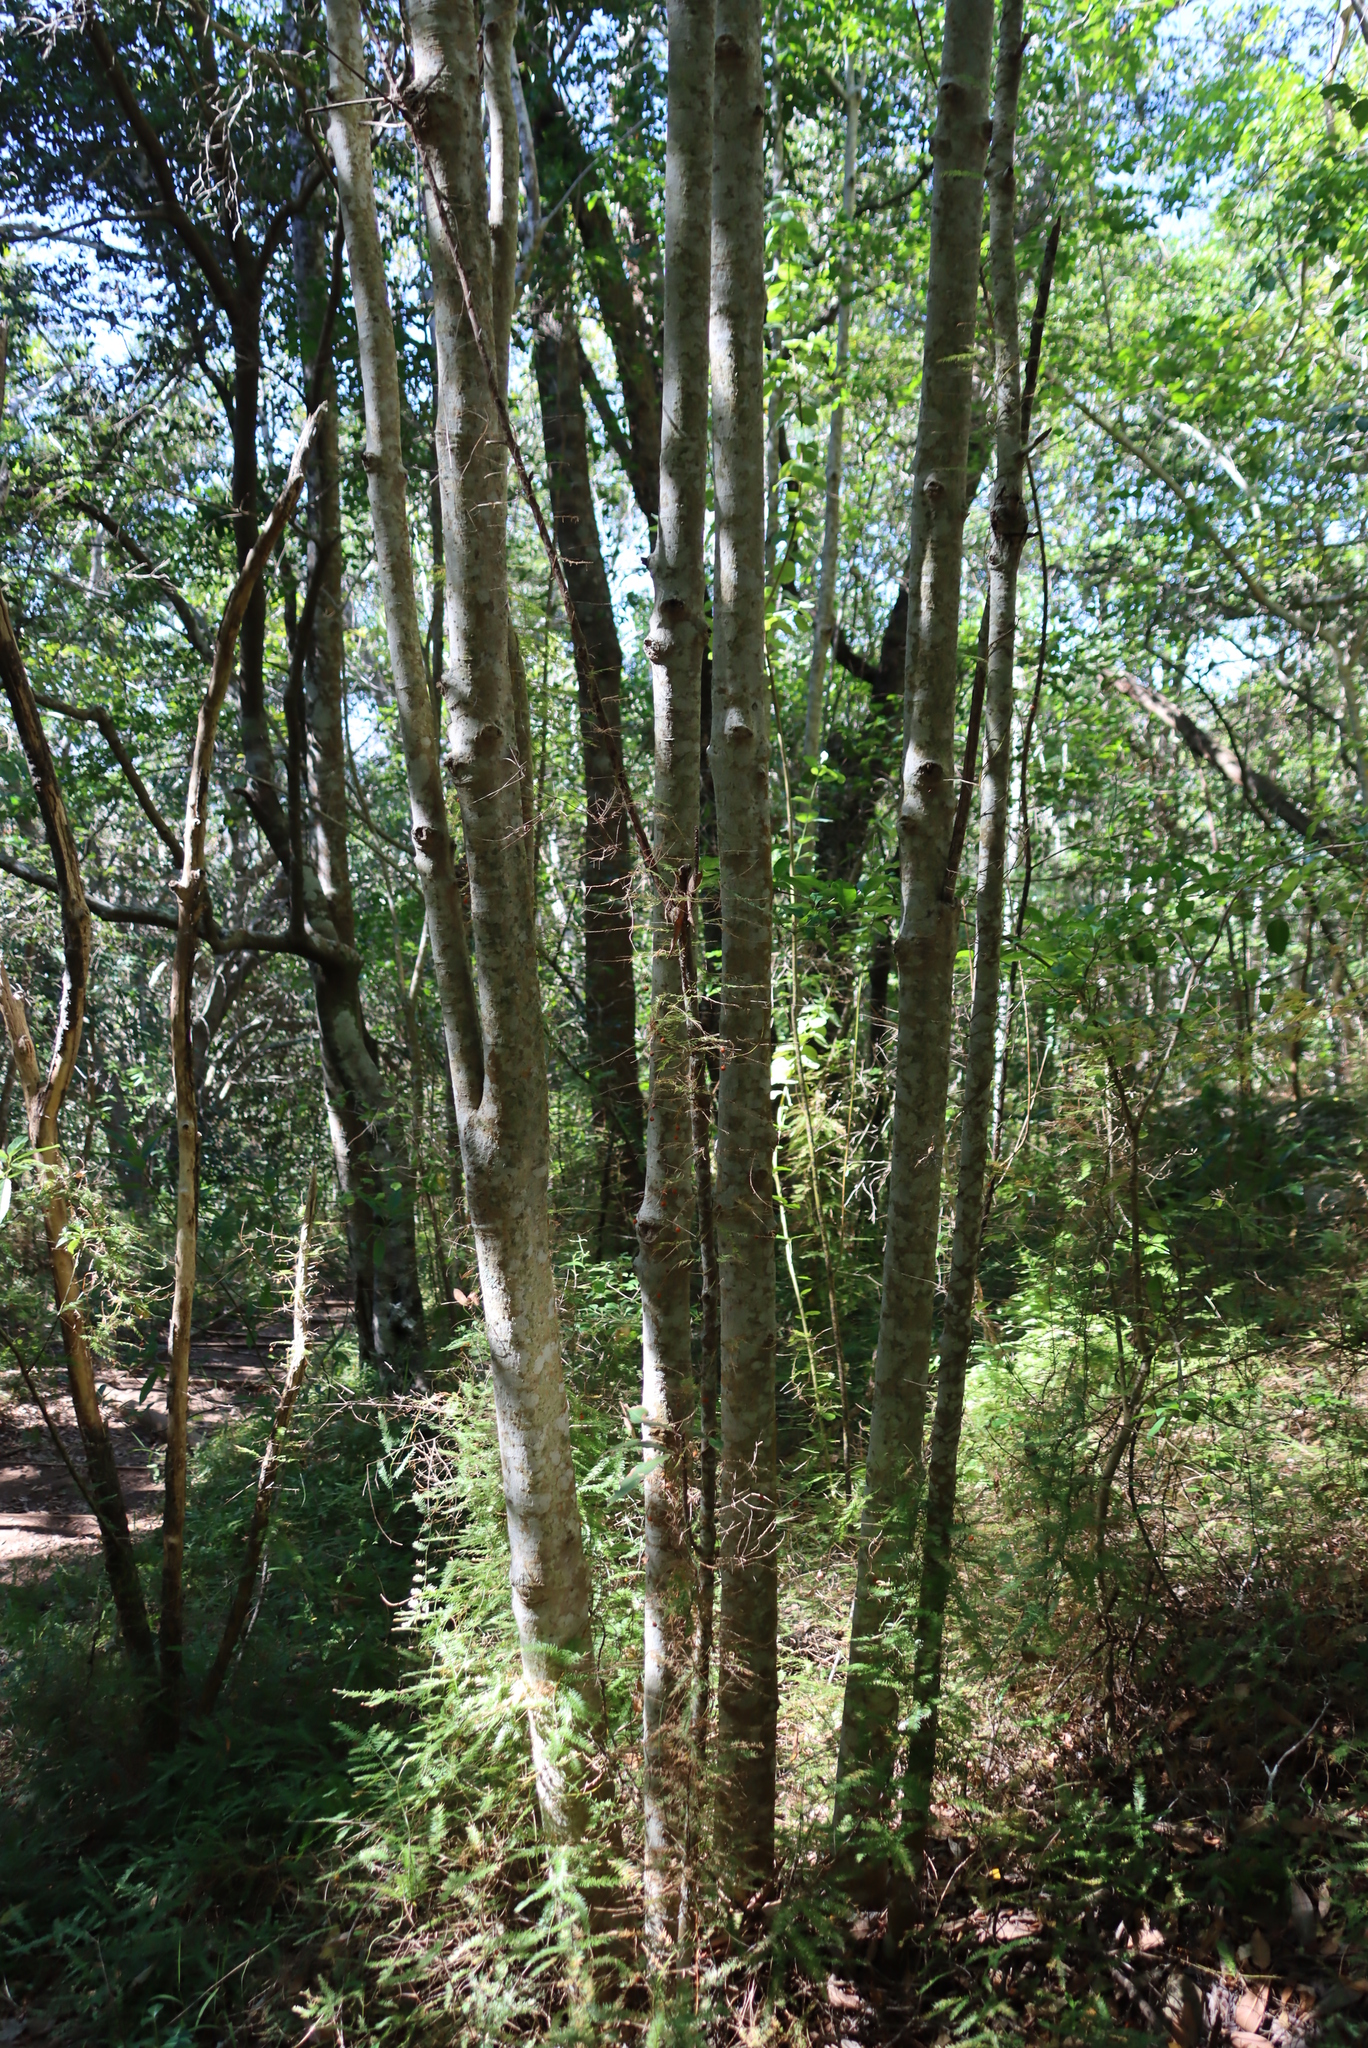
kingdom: Plantae
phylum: Tracheophyta
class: Magnoliopsida
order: Ericales
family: Primulaceae
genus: Myrsine
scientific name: Myrsine melanophloeos
